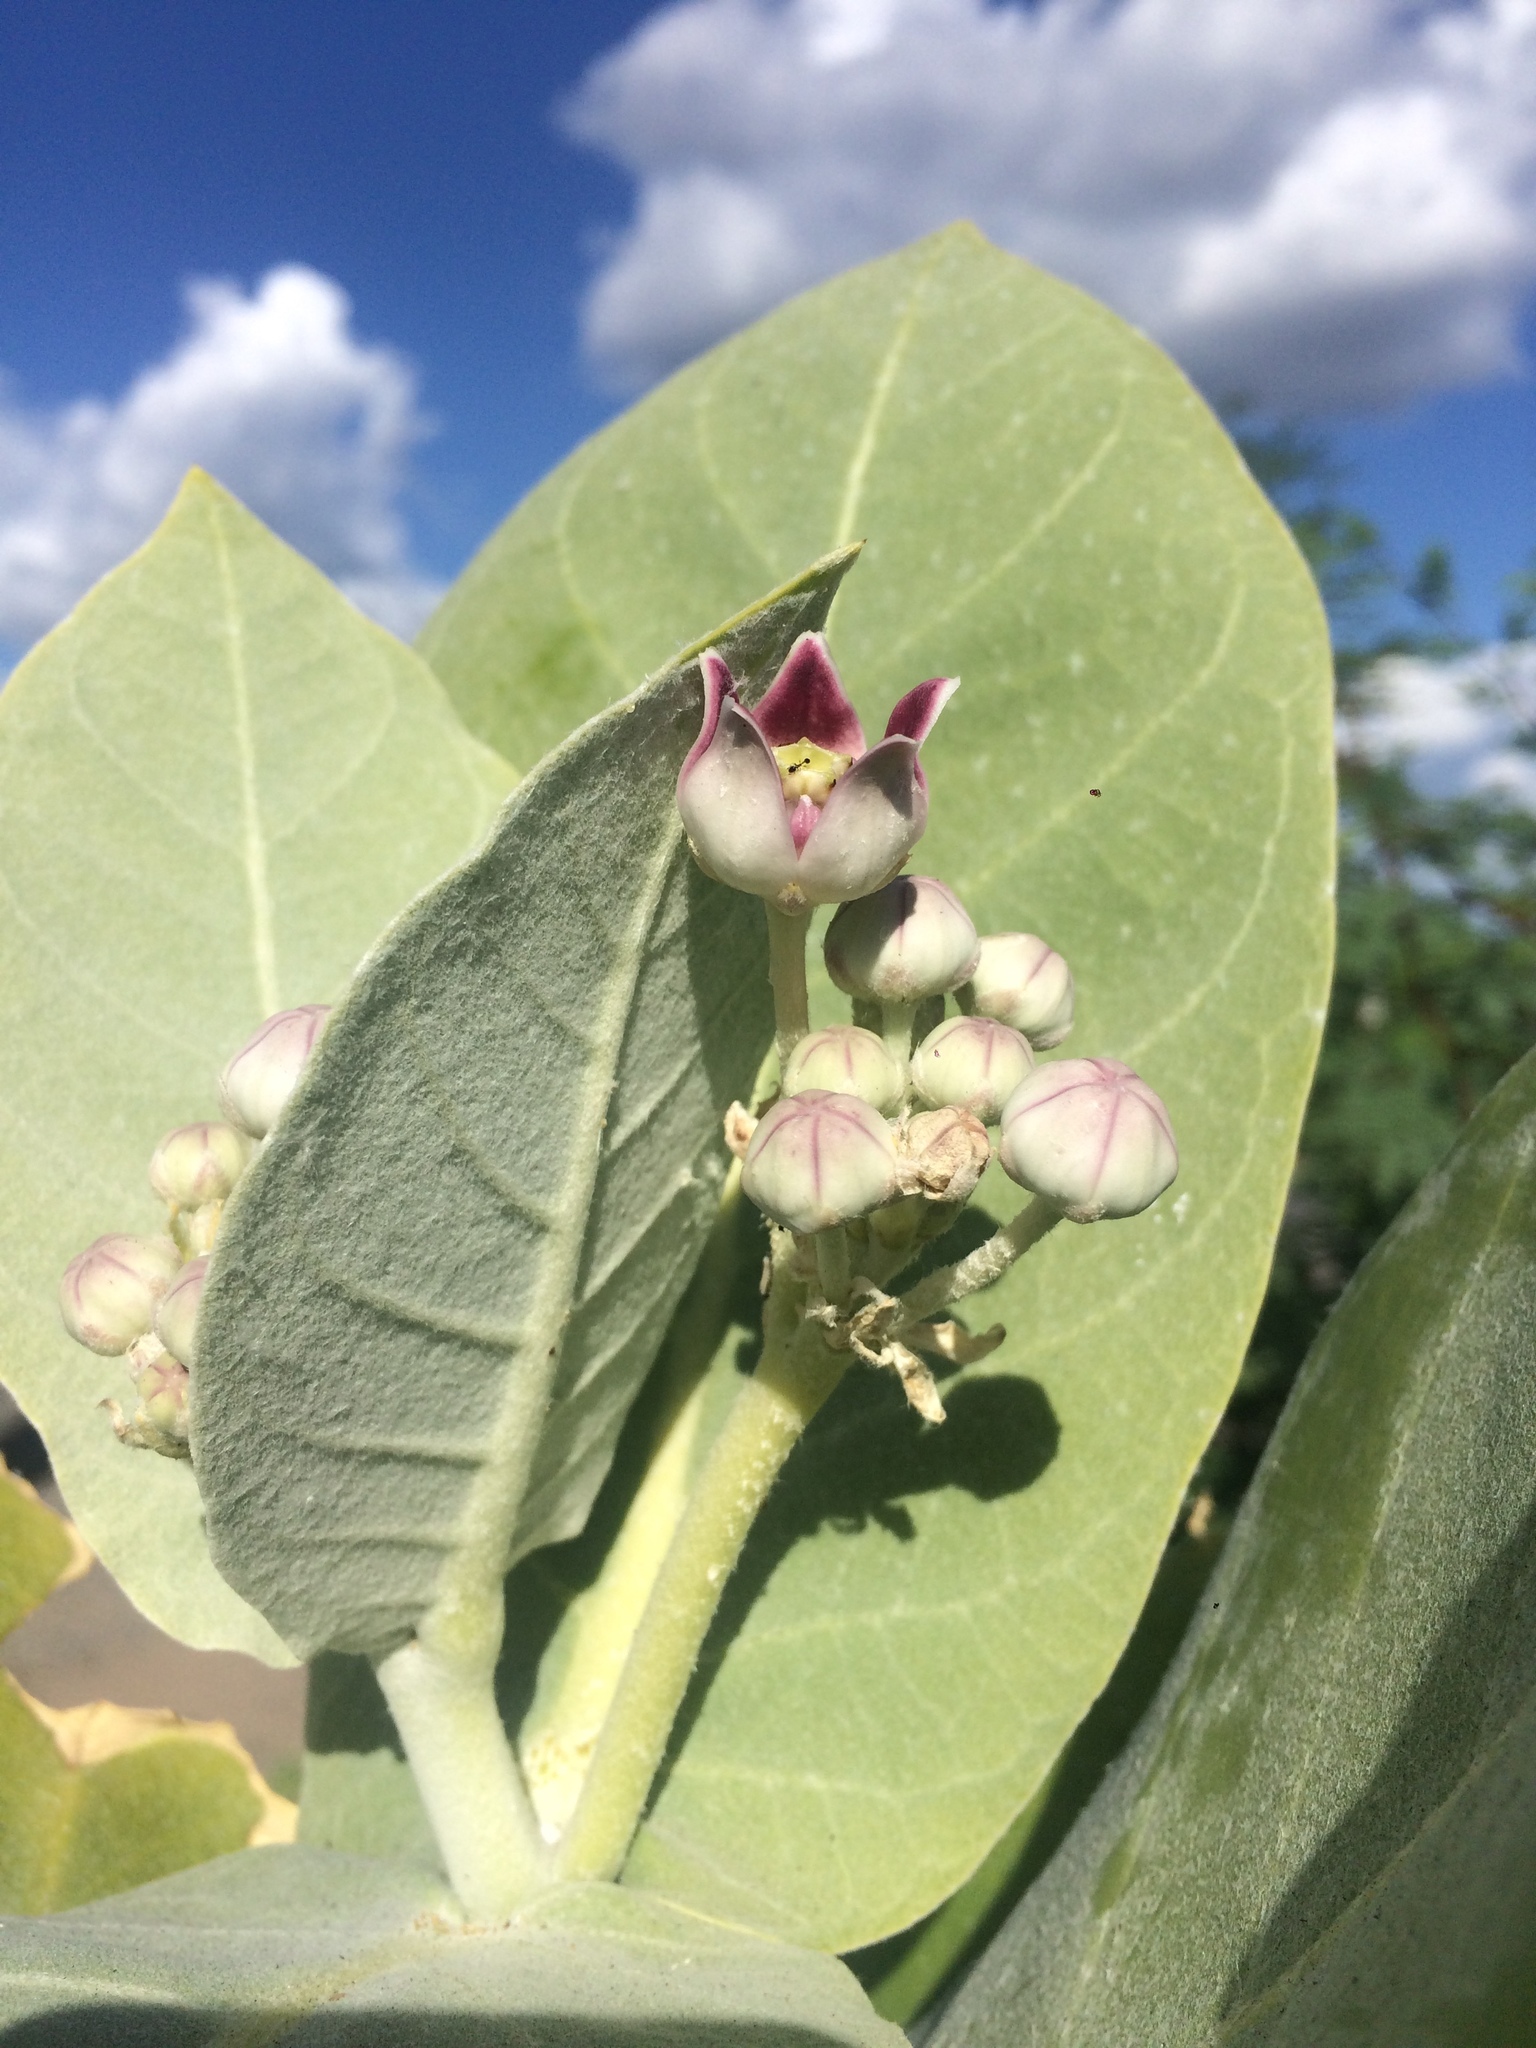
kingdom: Plantae
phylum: Tracheophyta
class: Magnoliopsida
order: Gentianales
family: Apocynaceae
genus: Calotropis
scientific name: Calotropis procera
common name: Roostertree
